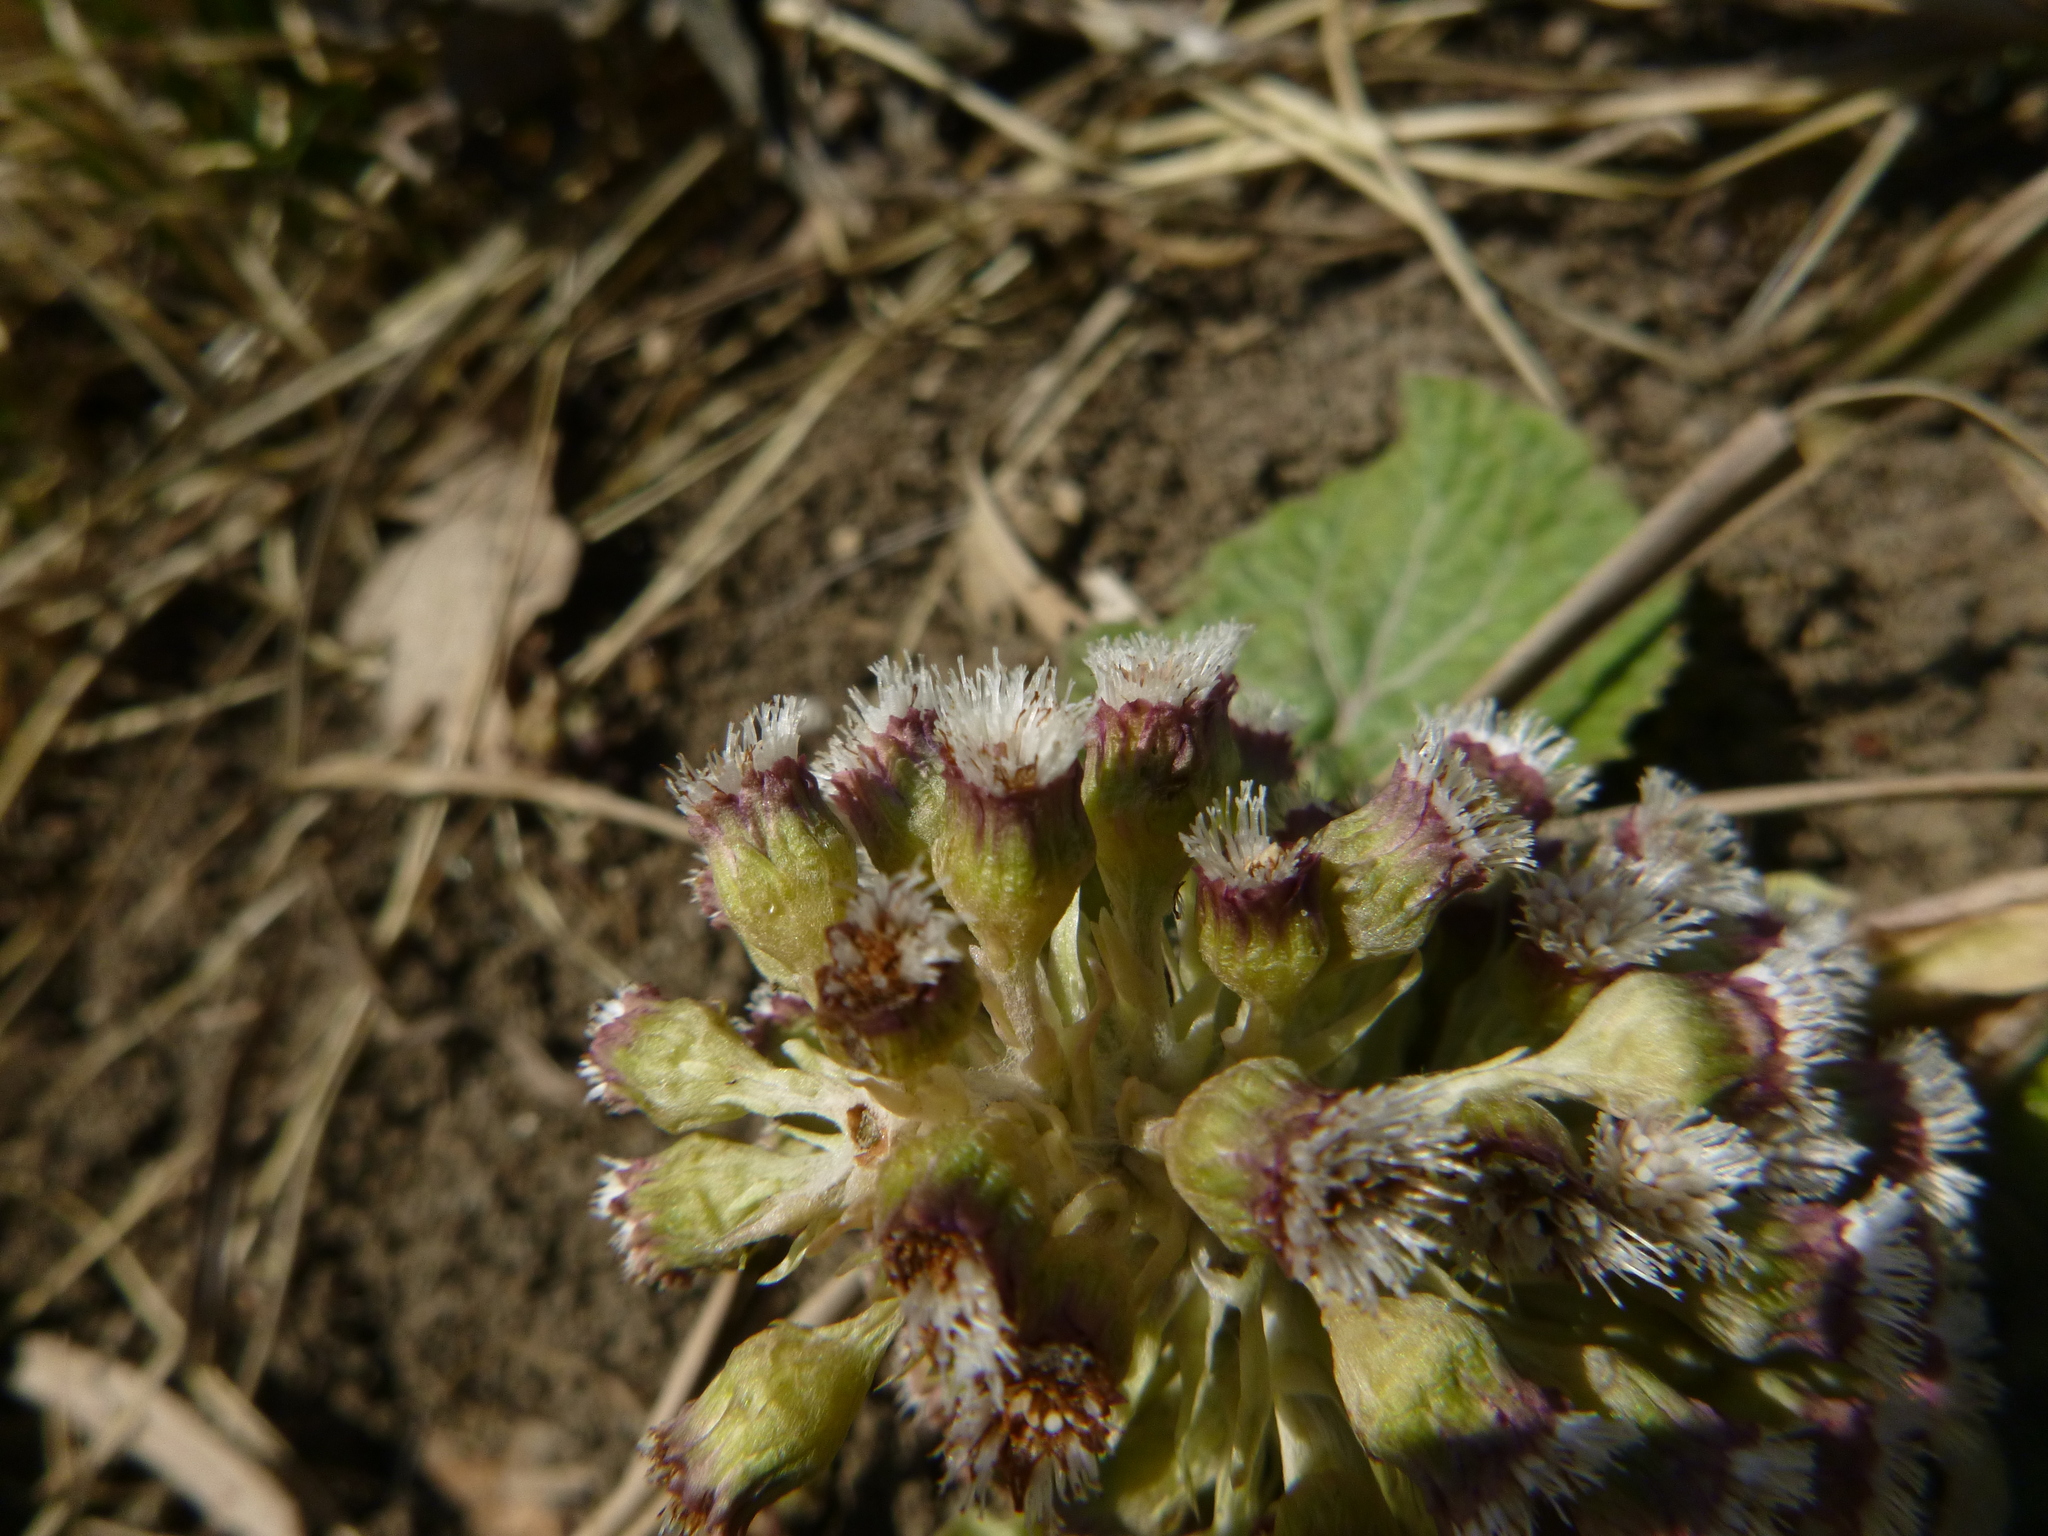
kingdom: Plantae
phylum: Tracheophyta
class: Magnoliopsida
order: Asterales
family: Asteraceae
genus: Petasites
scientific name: Petasites hybridus
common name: Butterbur
